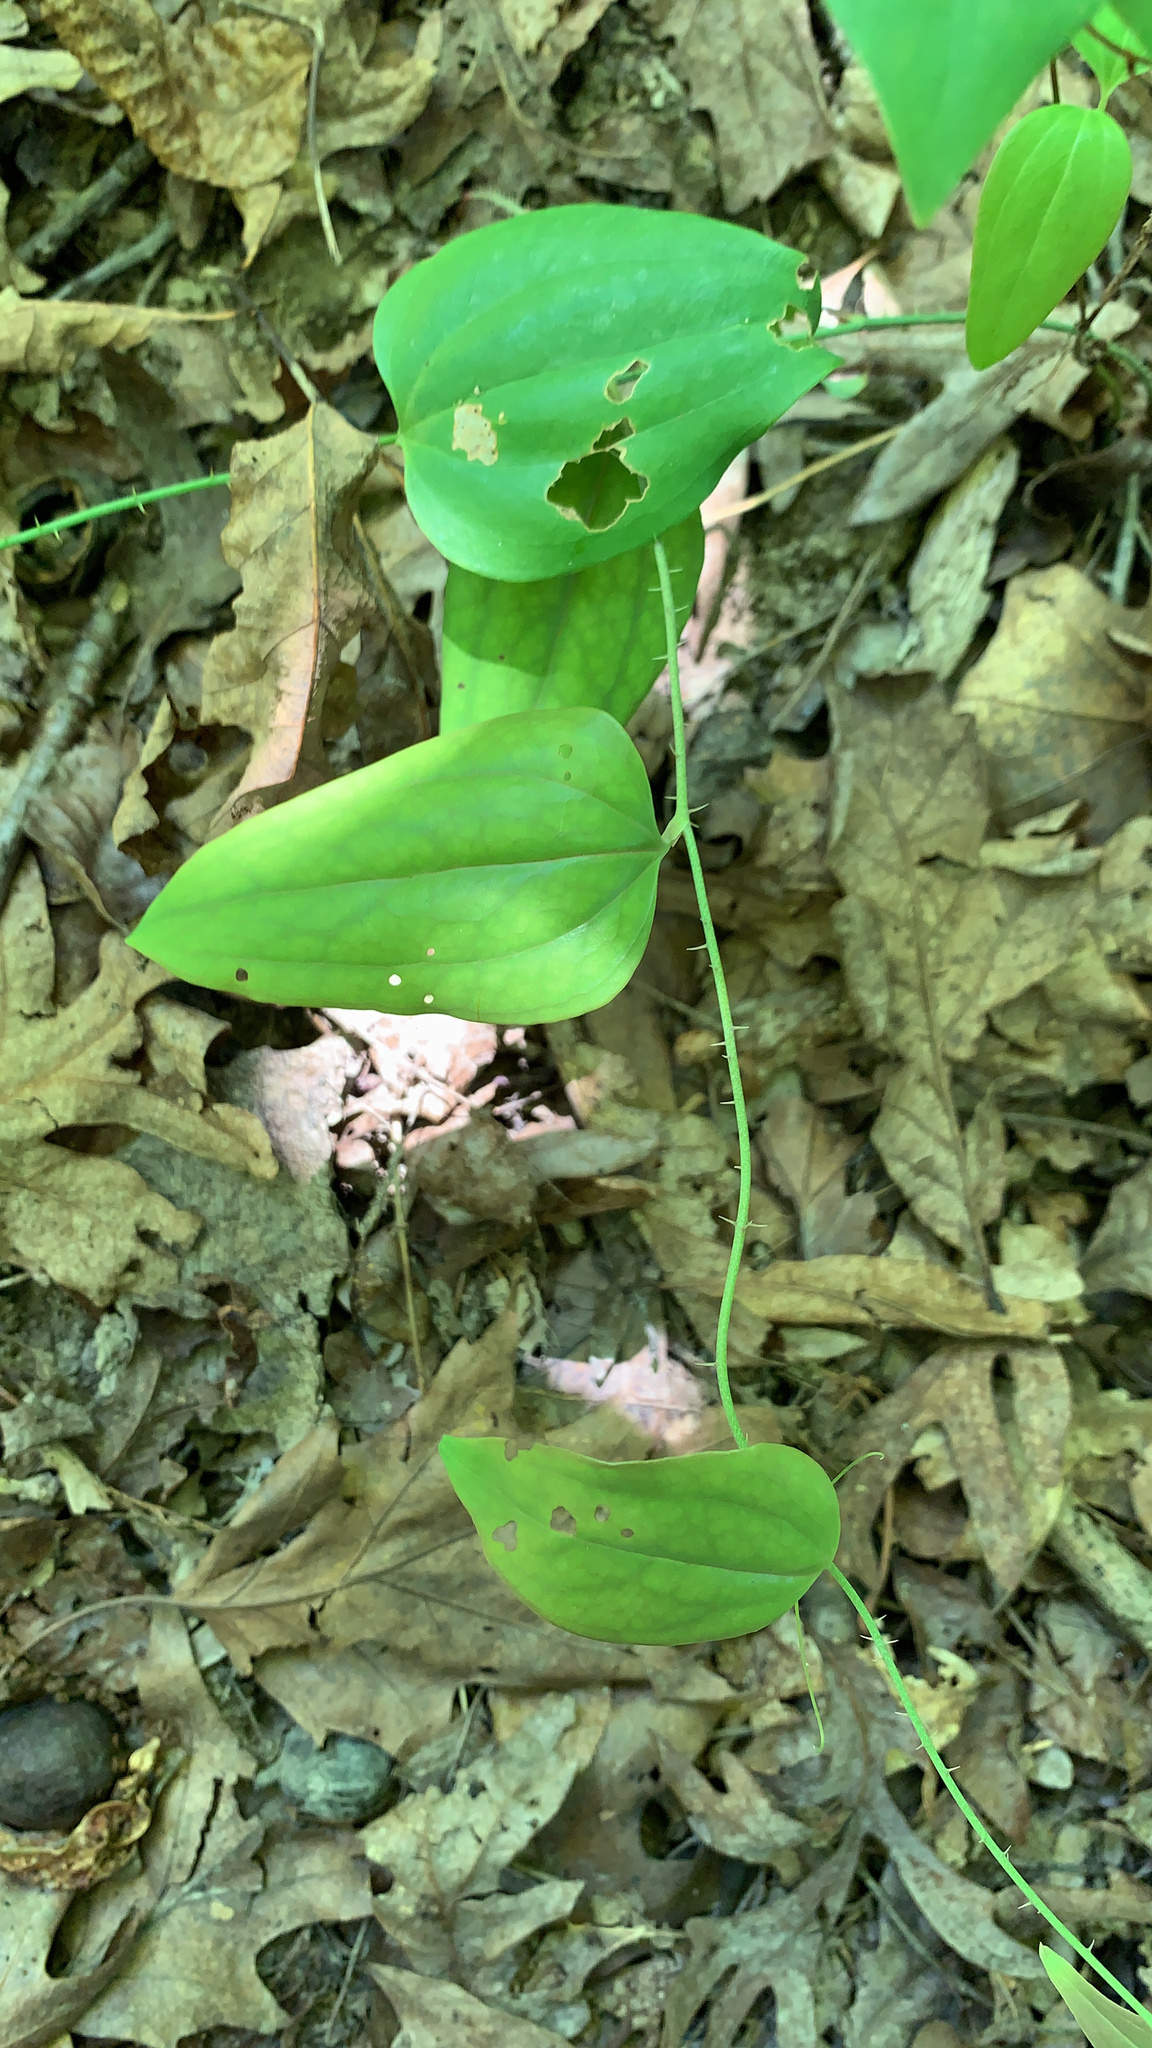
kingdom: Plantae
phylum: Tracheophyta
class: Liliopsida
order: Liliales
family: Smilacaceae
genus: Smilax
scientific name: Smilax glauca
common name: Cat greenbrier
